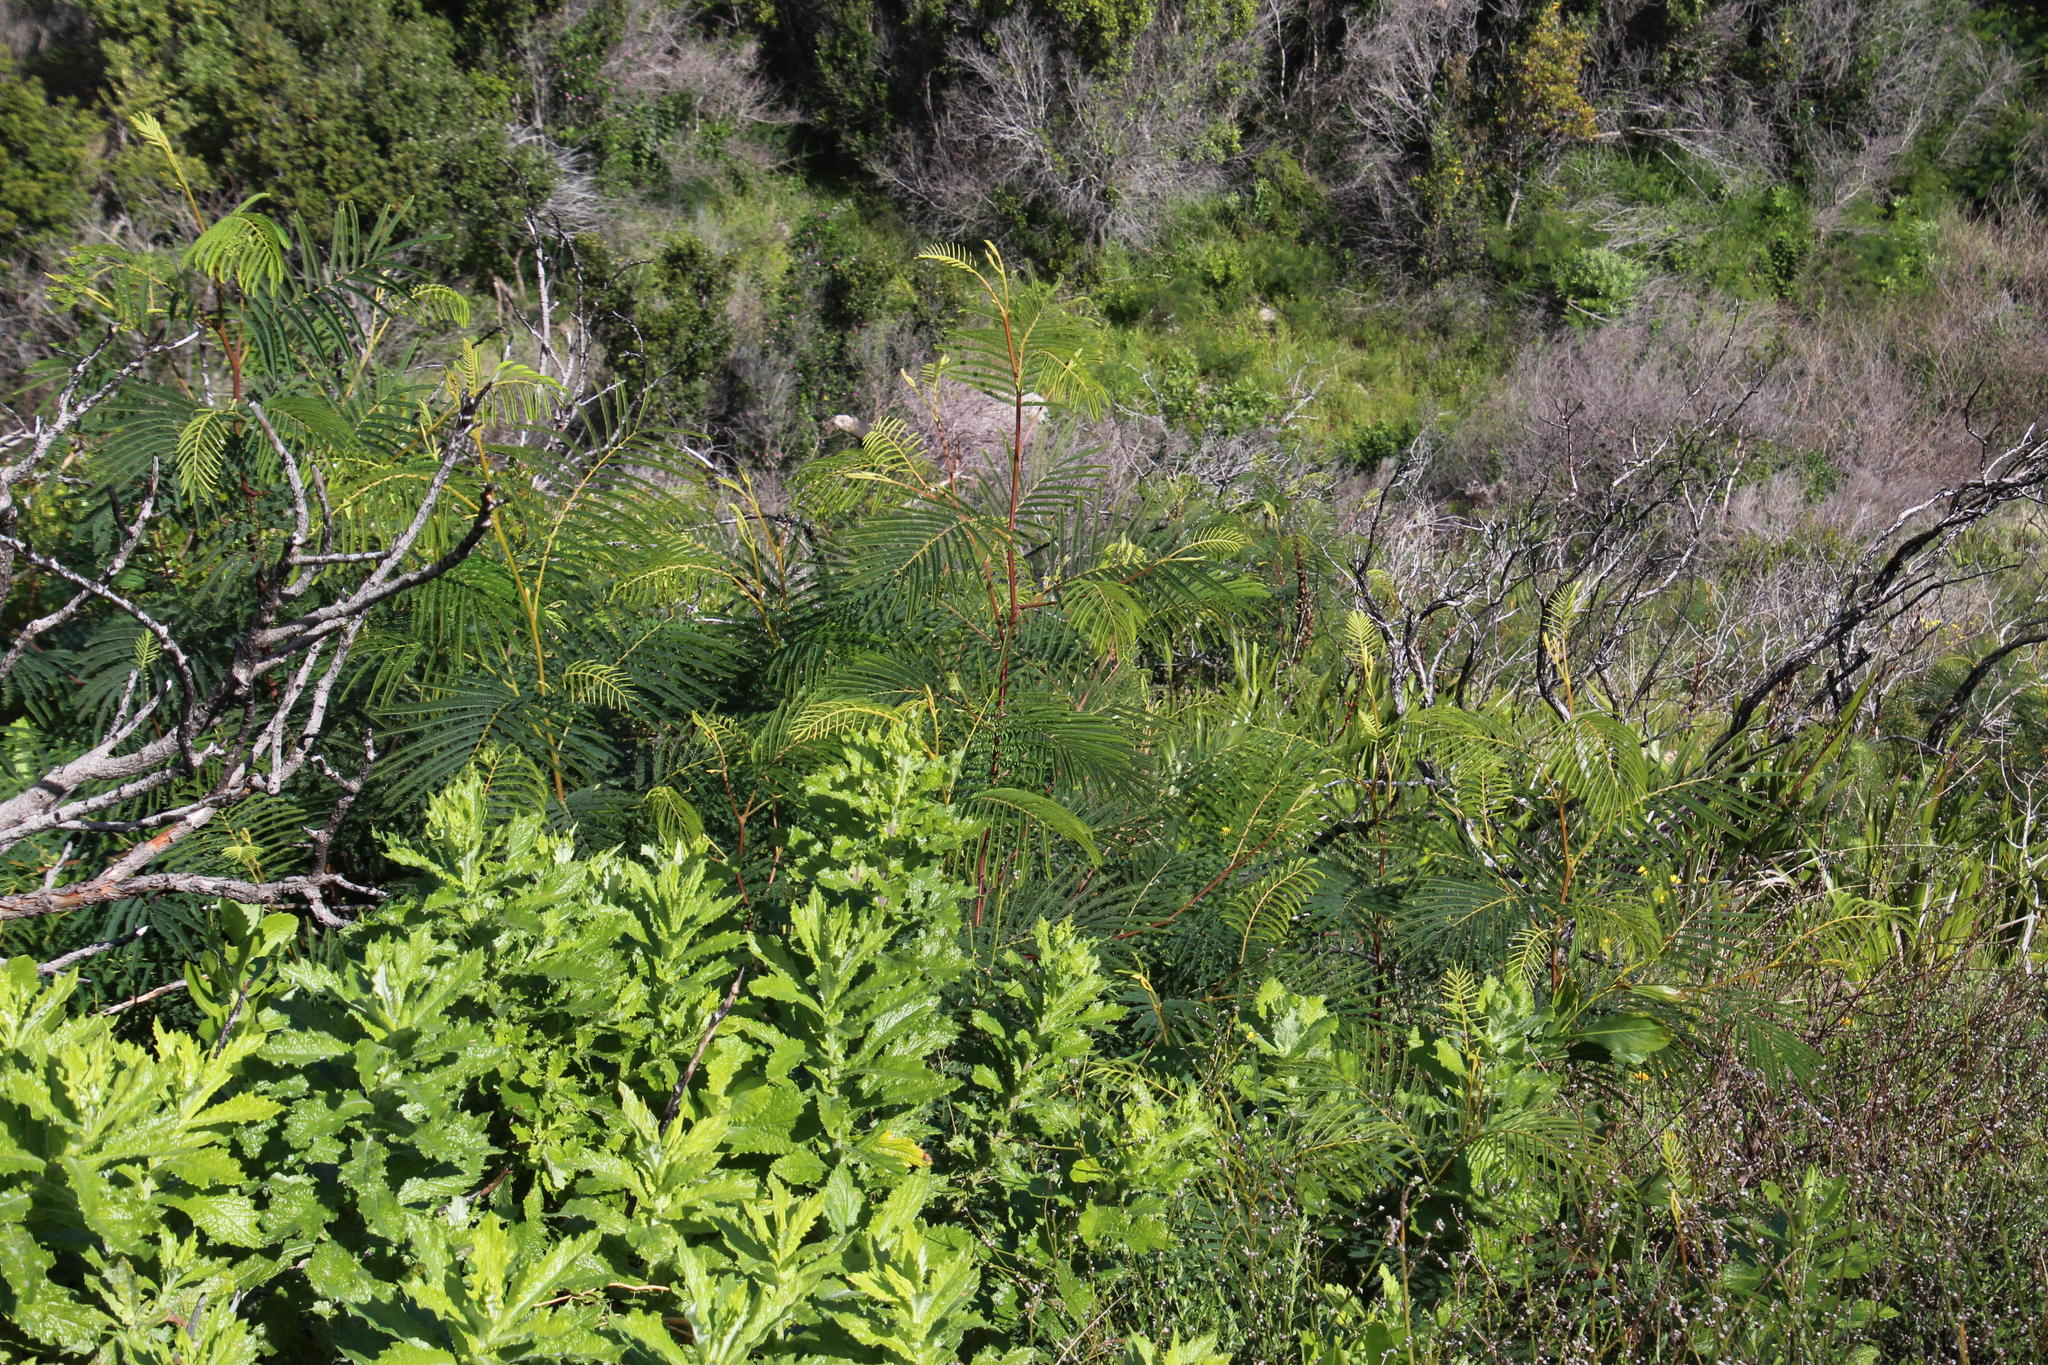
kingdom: Plantae
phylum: Tracheophyta
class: Magnoliopsida
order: Fabales
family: Fabaceae
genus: Paraserianthes
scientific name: Paraserianthes lophantha
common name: Plume albizia
